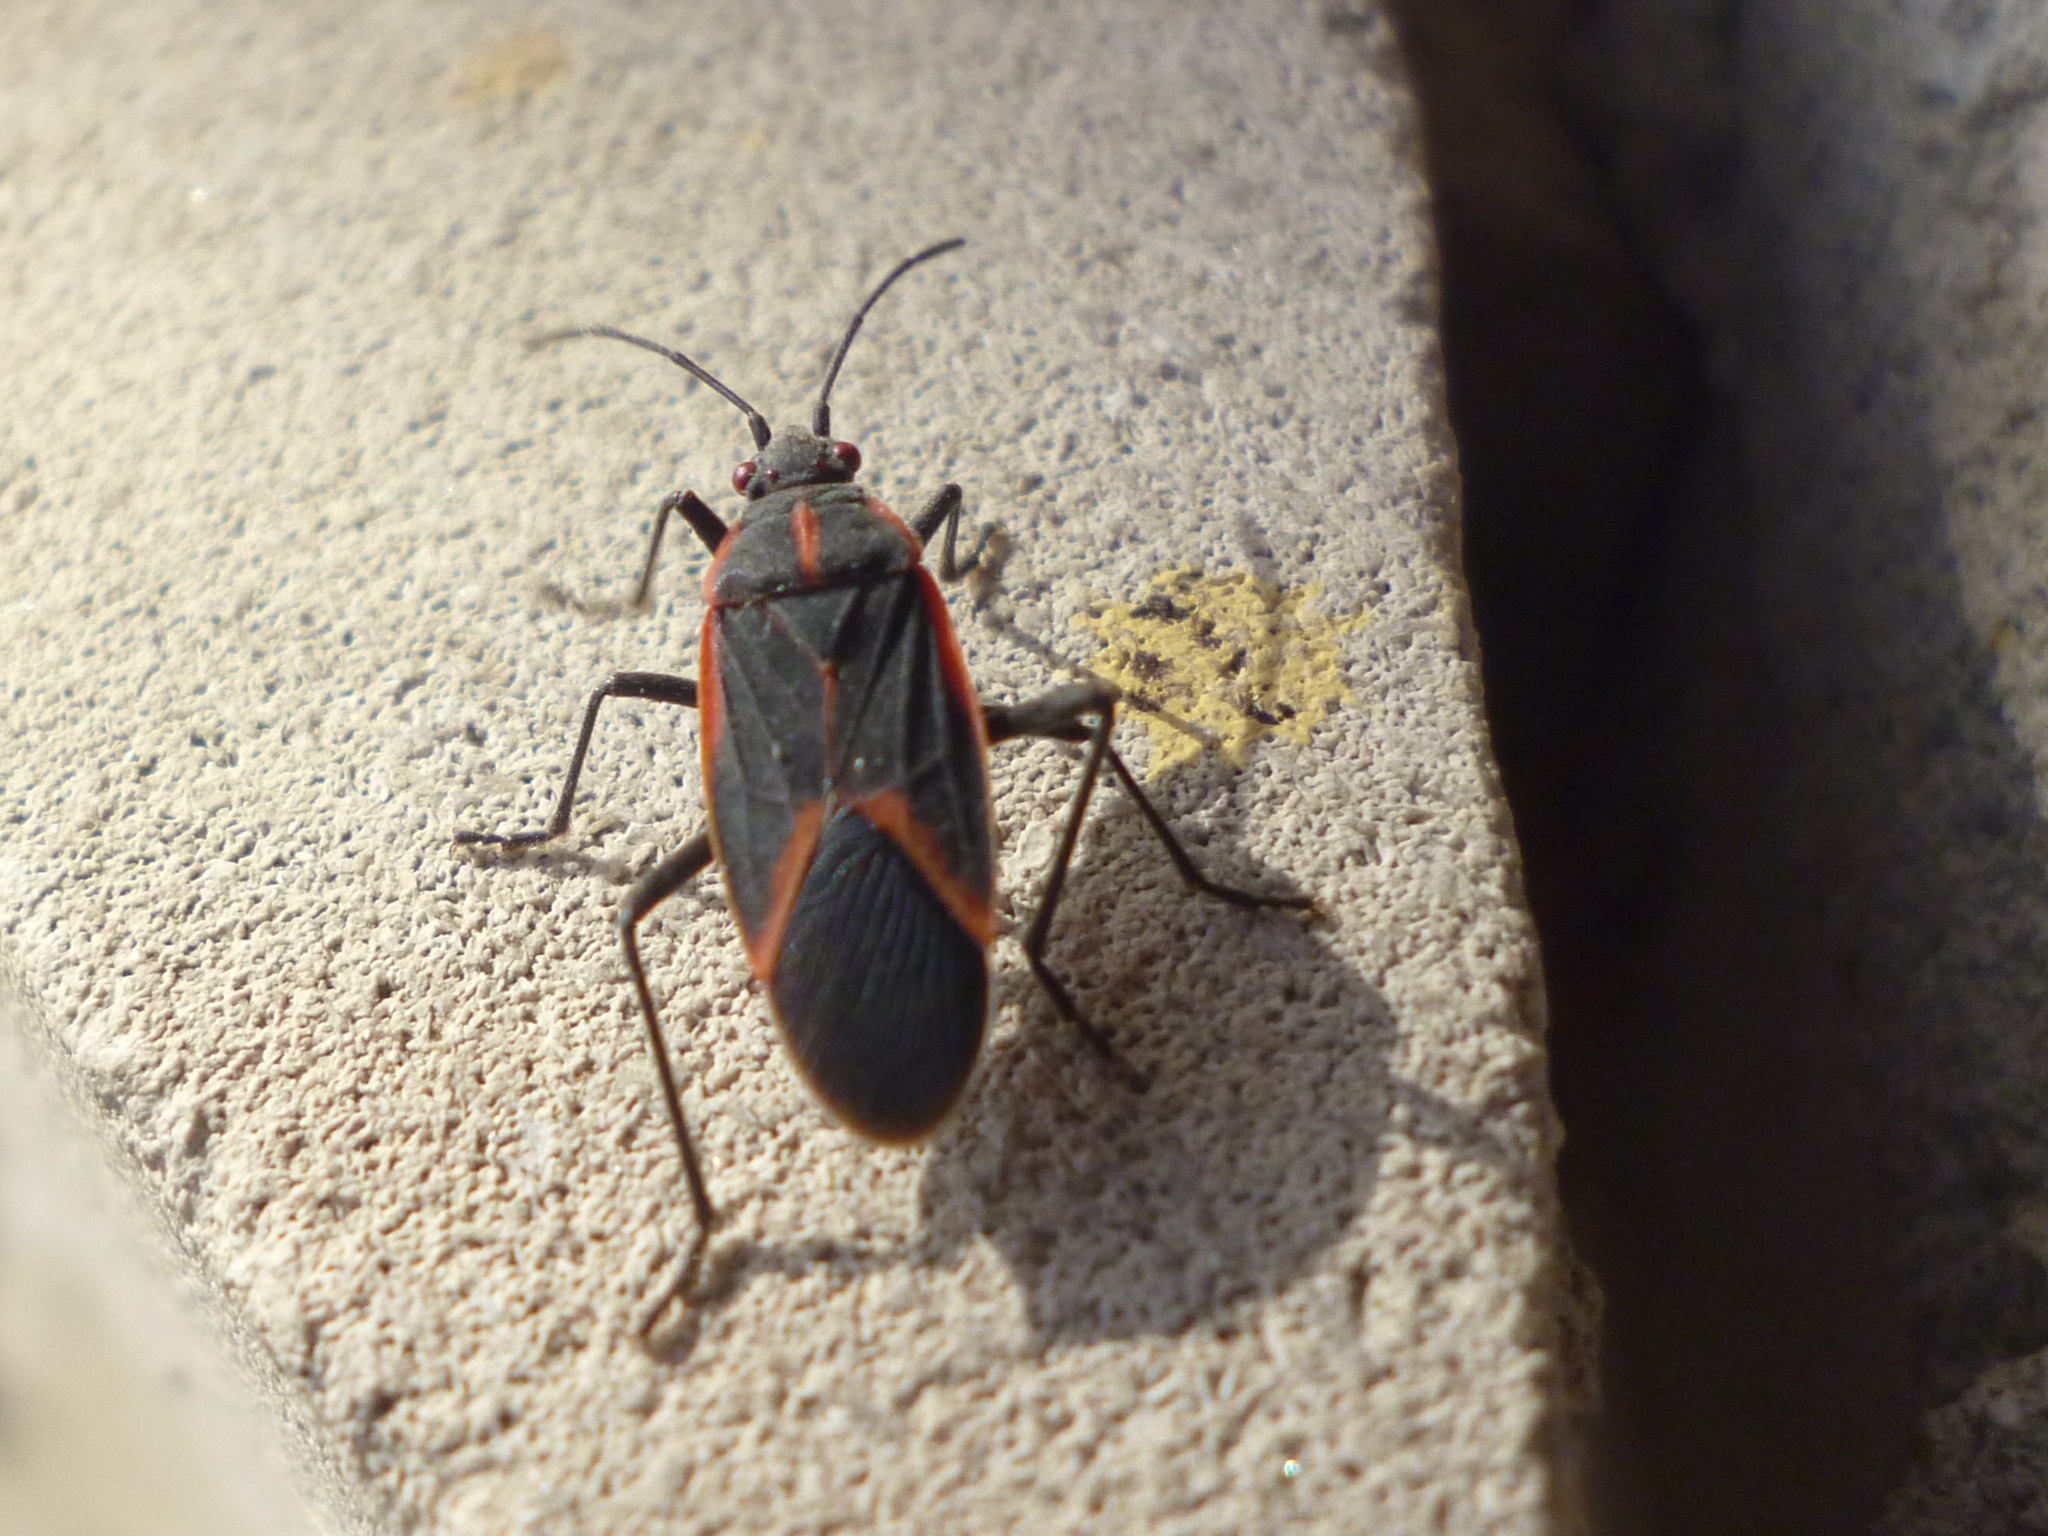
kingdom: Animalia
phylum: Arthropoda
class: Insecta
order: Hemiptera
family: Rhopalidae
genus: Boisea
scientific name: Boisea trivittata
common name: Boxelder bug
